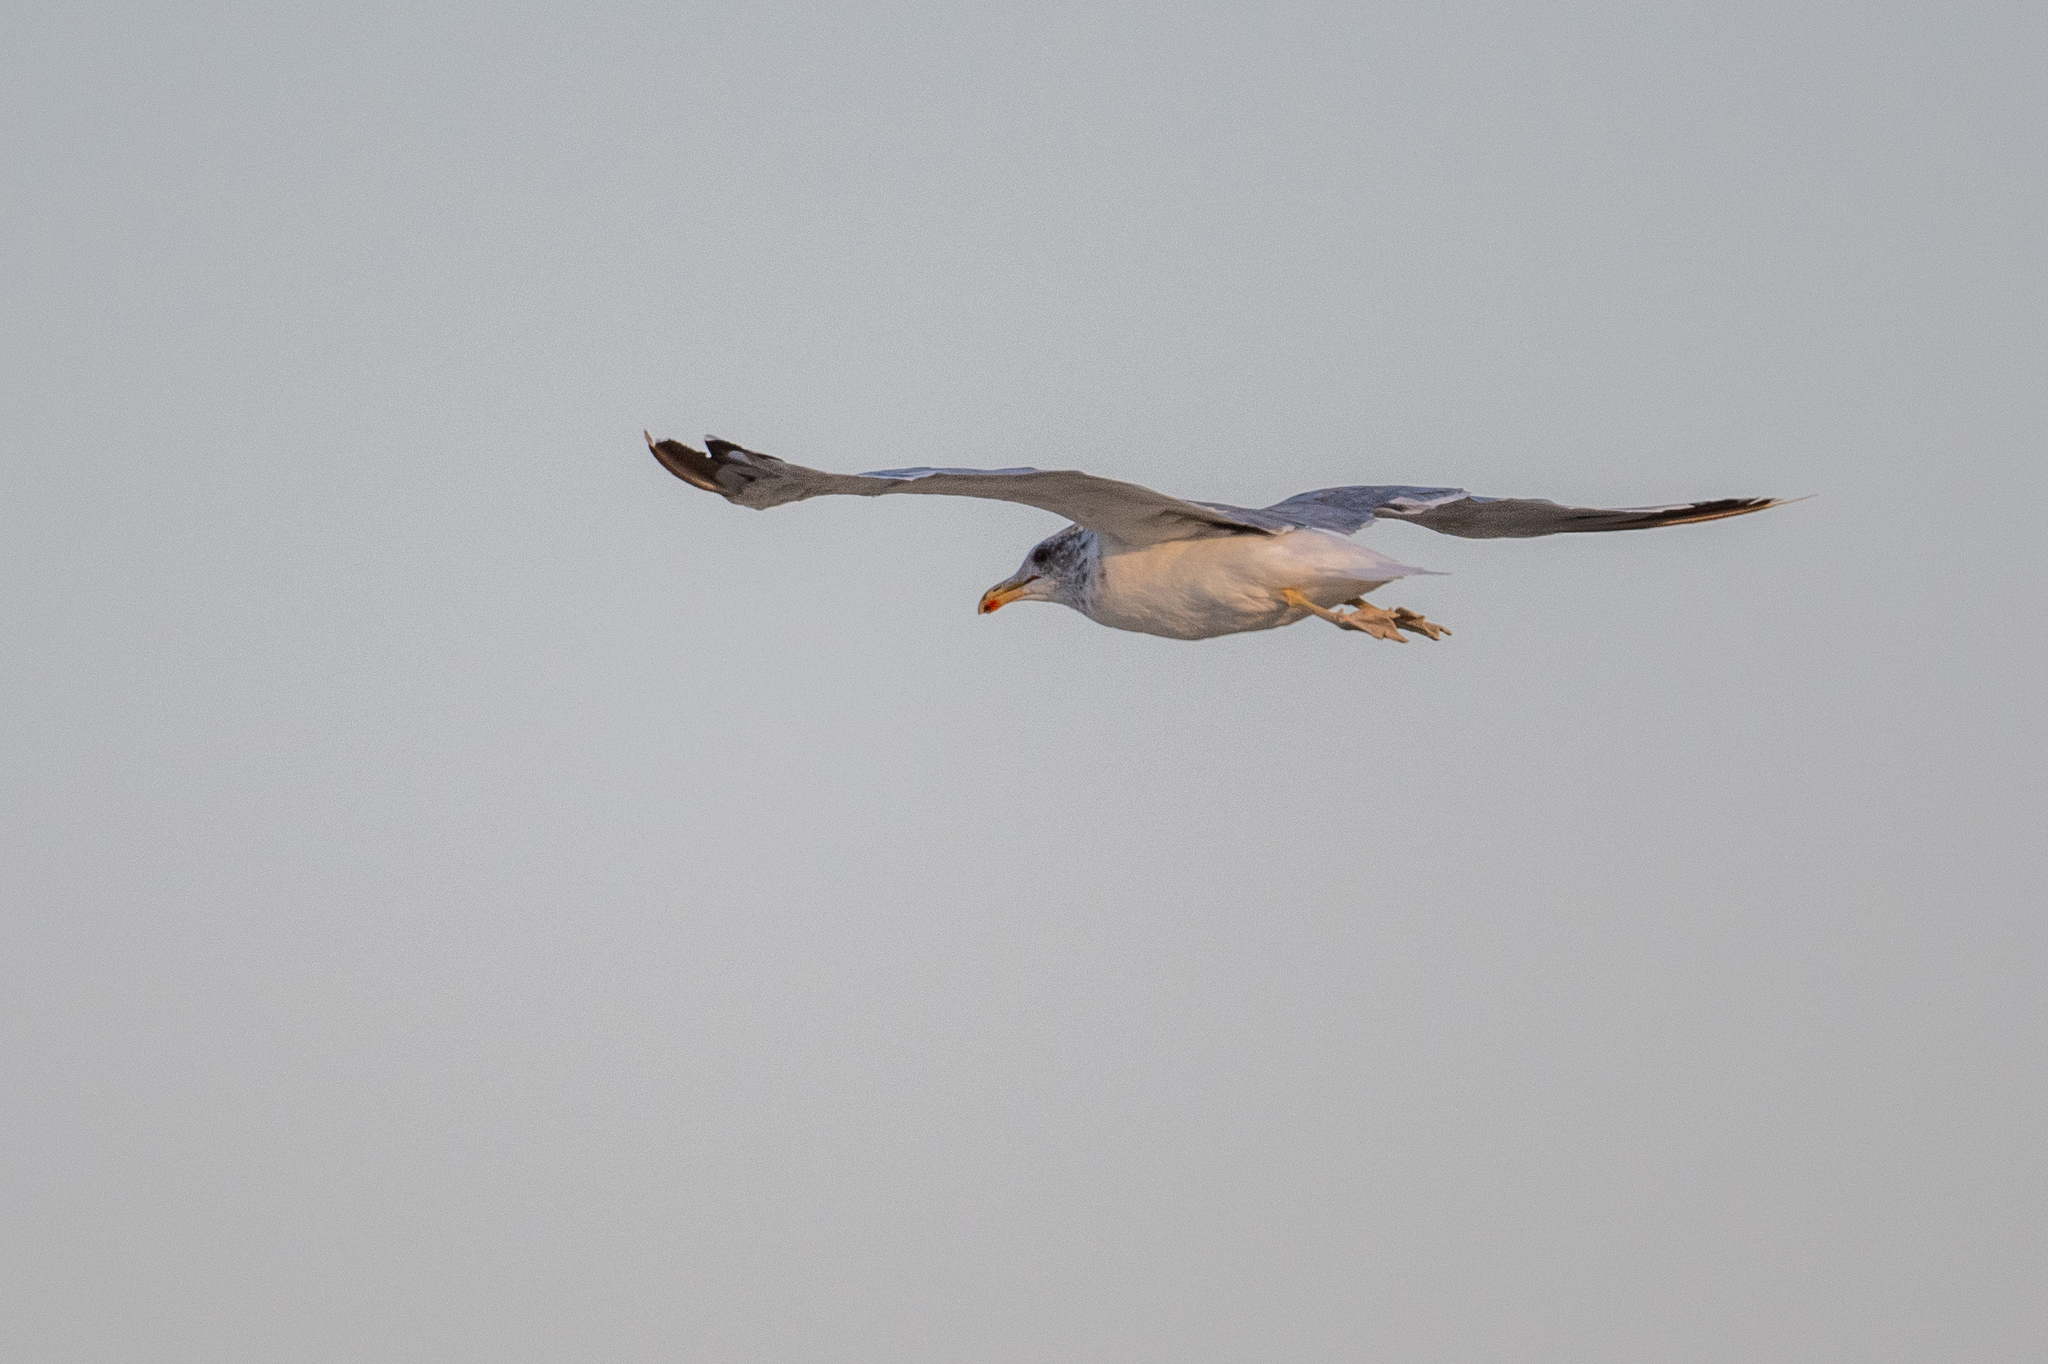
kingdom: Animalia
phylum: Chordata
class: Aves
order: Charadriiformes
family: Laridae
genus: Larus
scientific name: Larus californicus
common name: California gull
